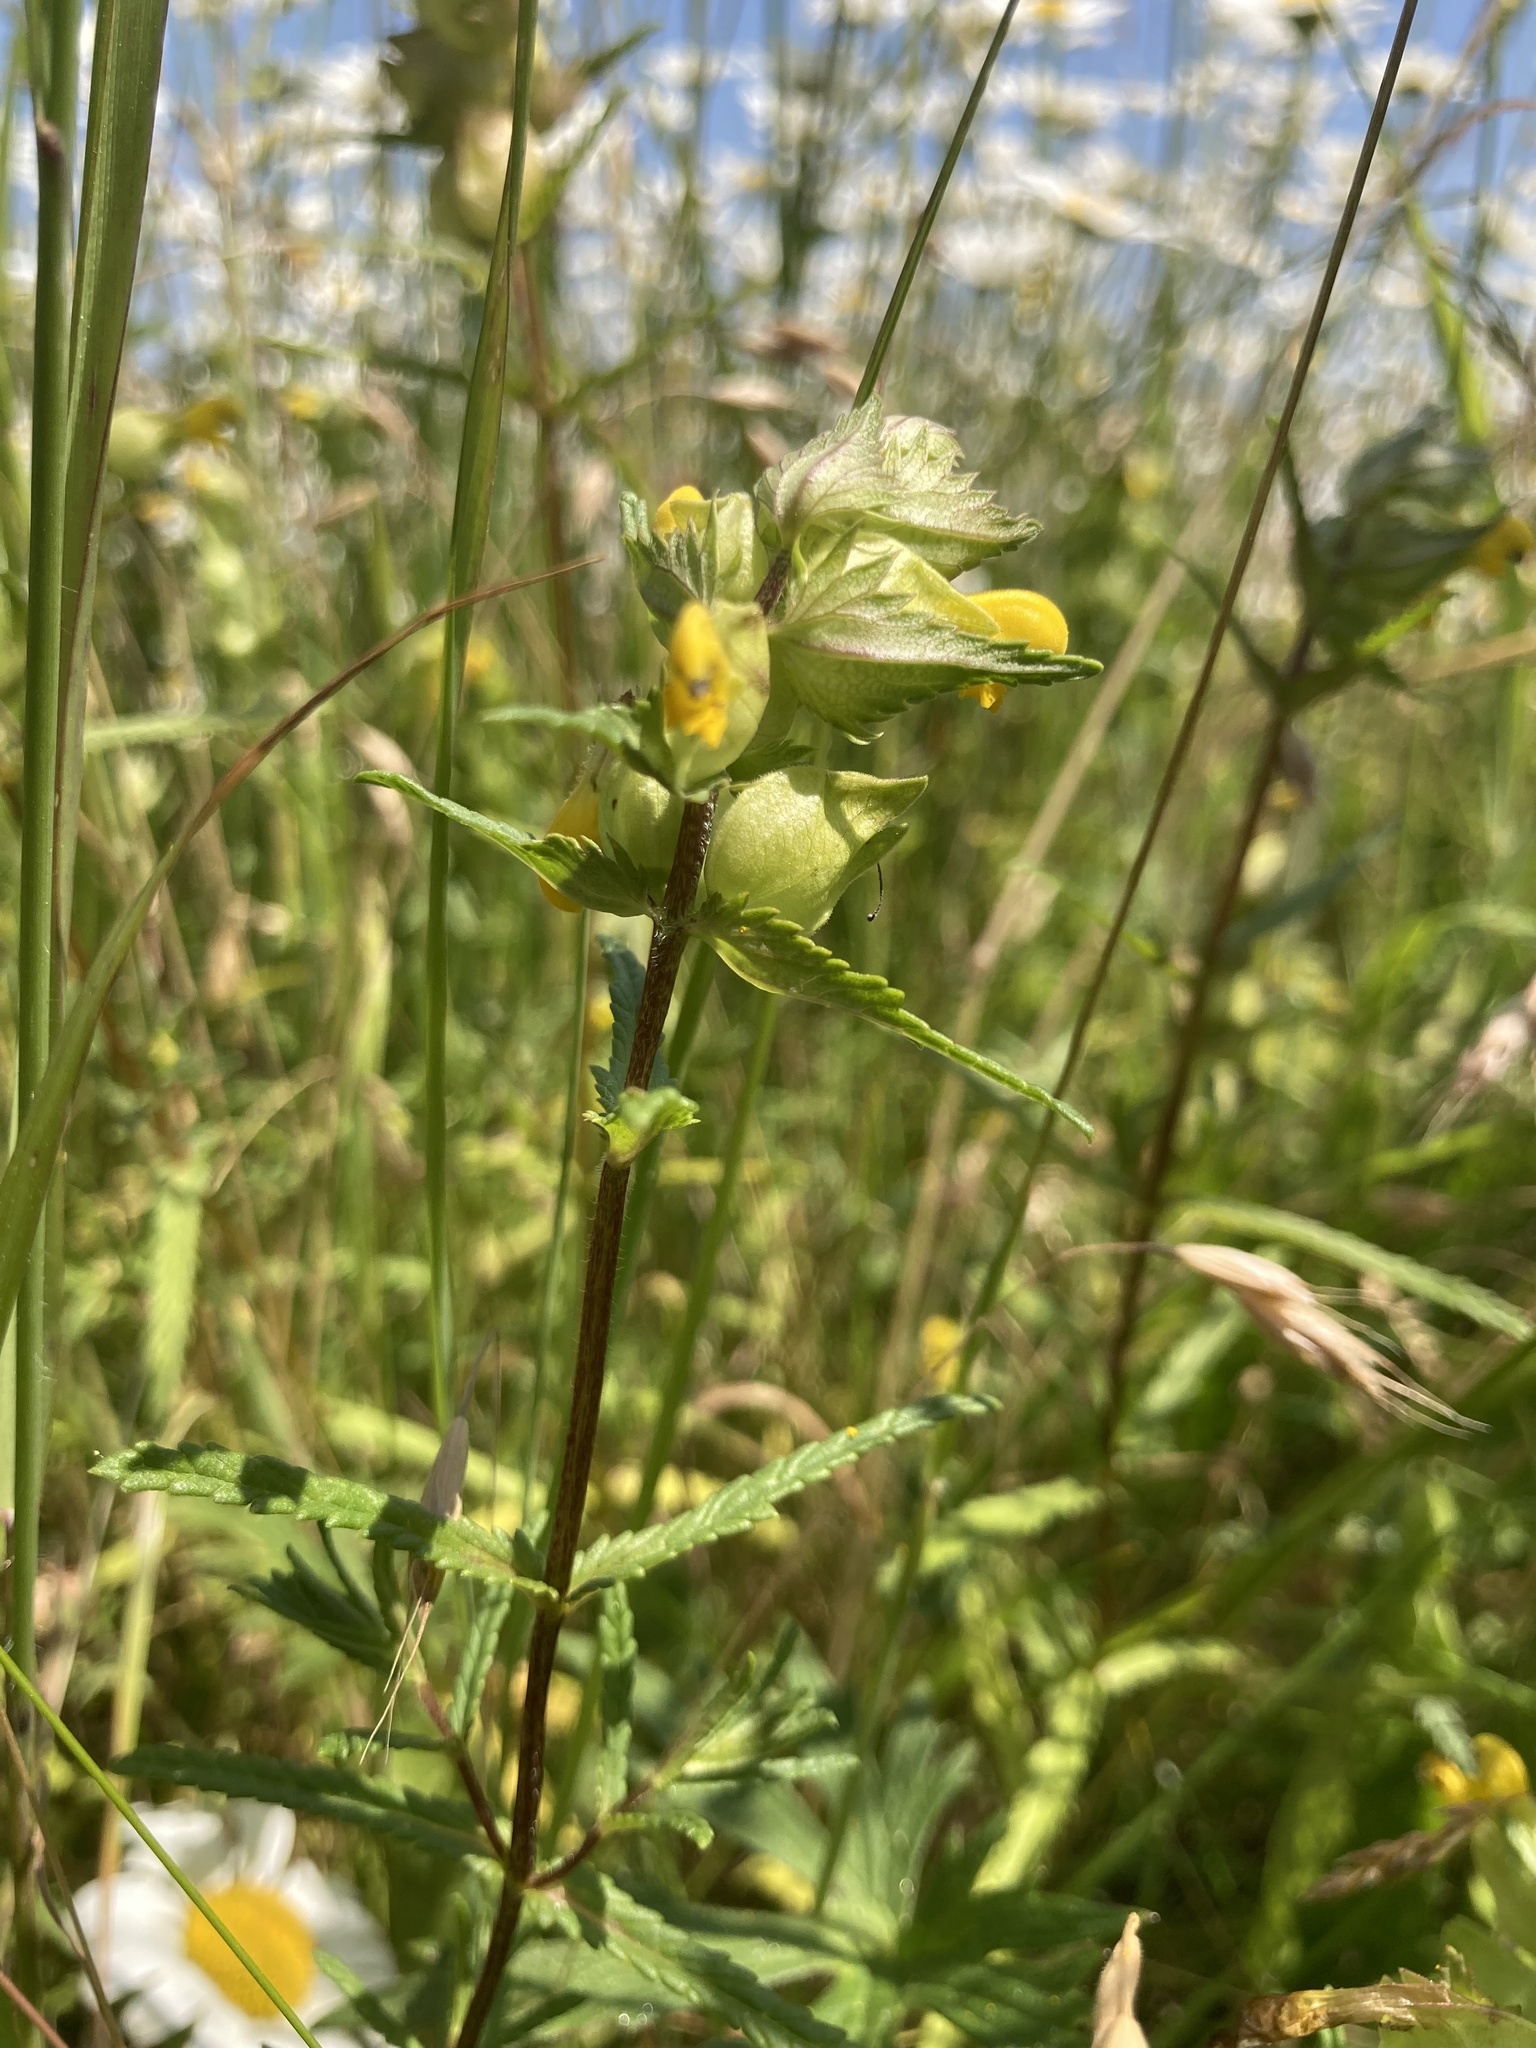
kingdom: Plantae
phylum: Tracheophyta
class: Magnoliopsida
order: Lamiales
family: Orobanchaceae
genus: Rhinanthus
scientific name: Rhinanthus minor
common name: Yellow-rattle
